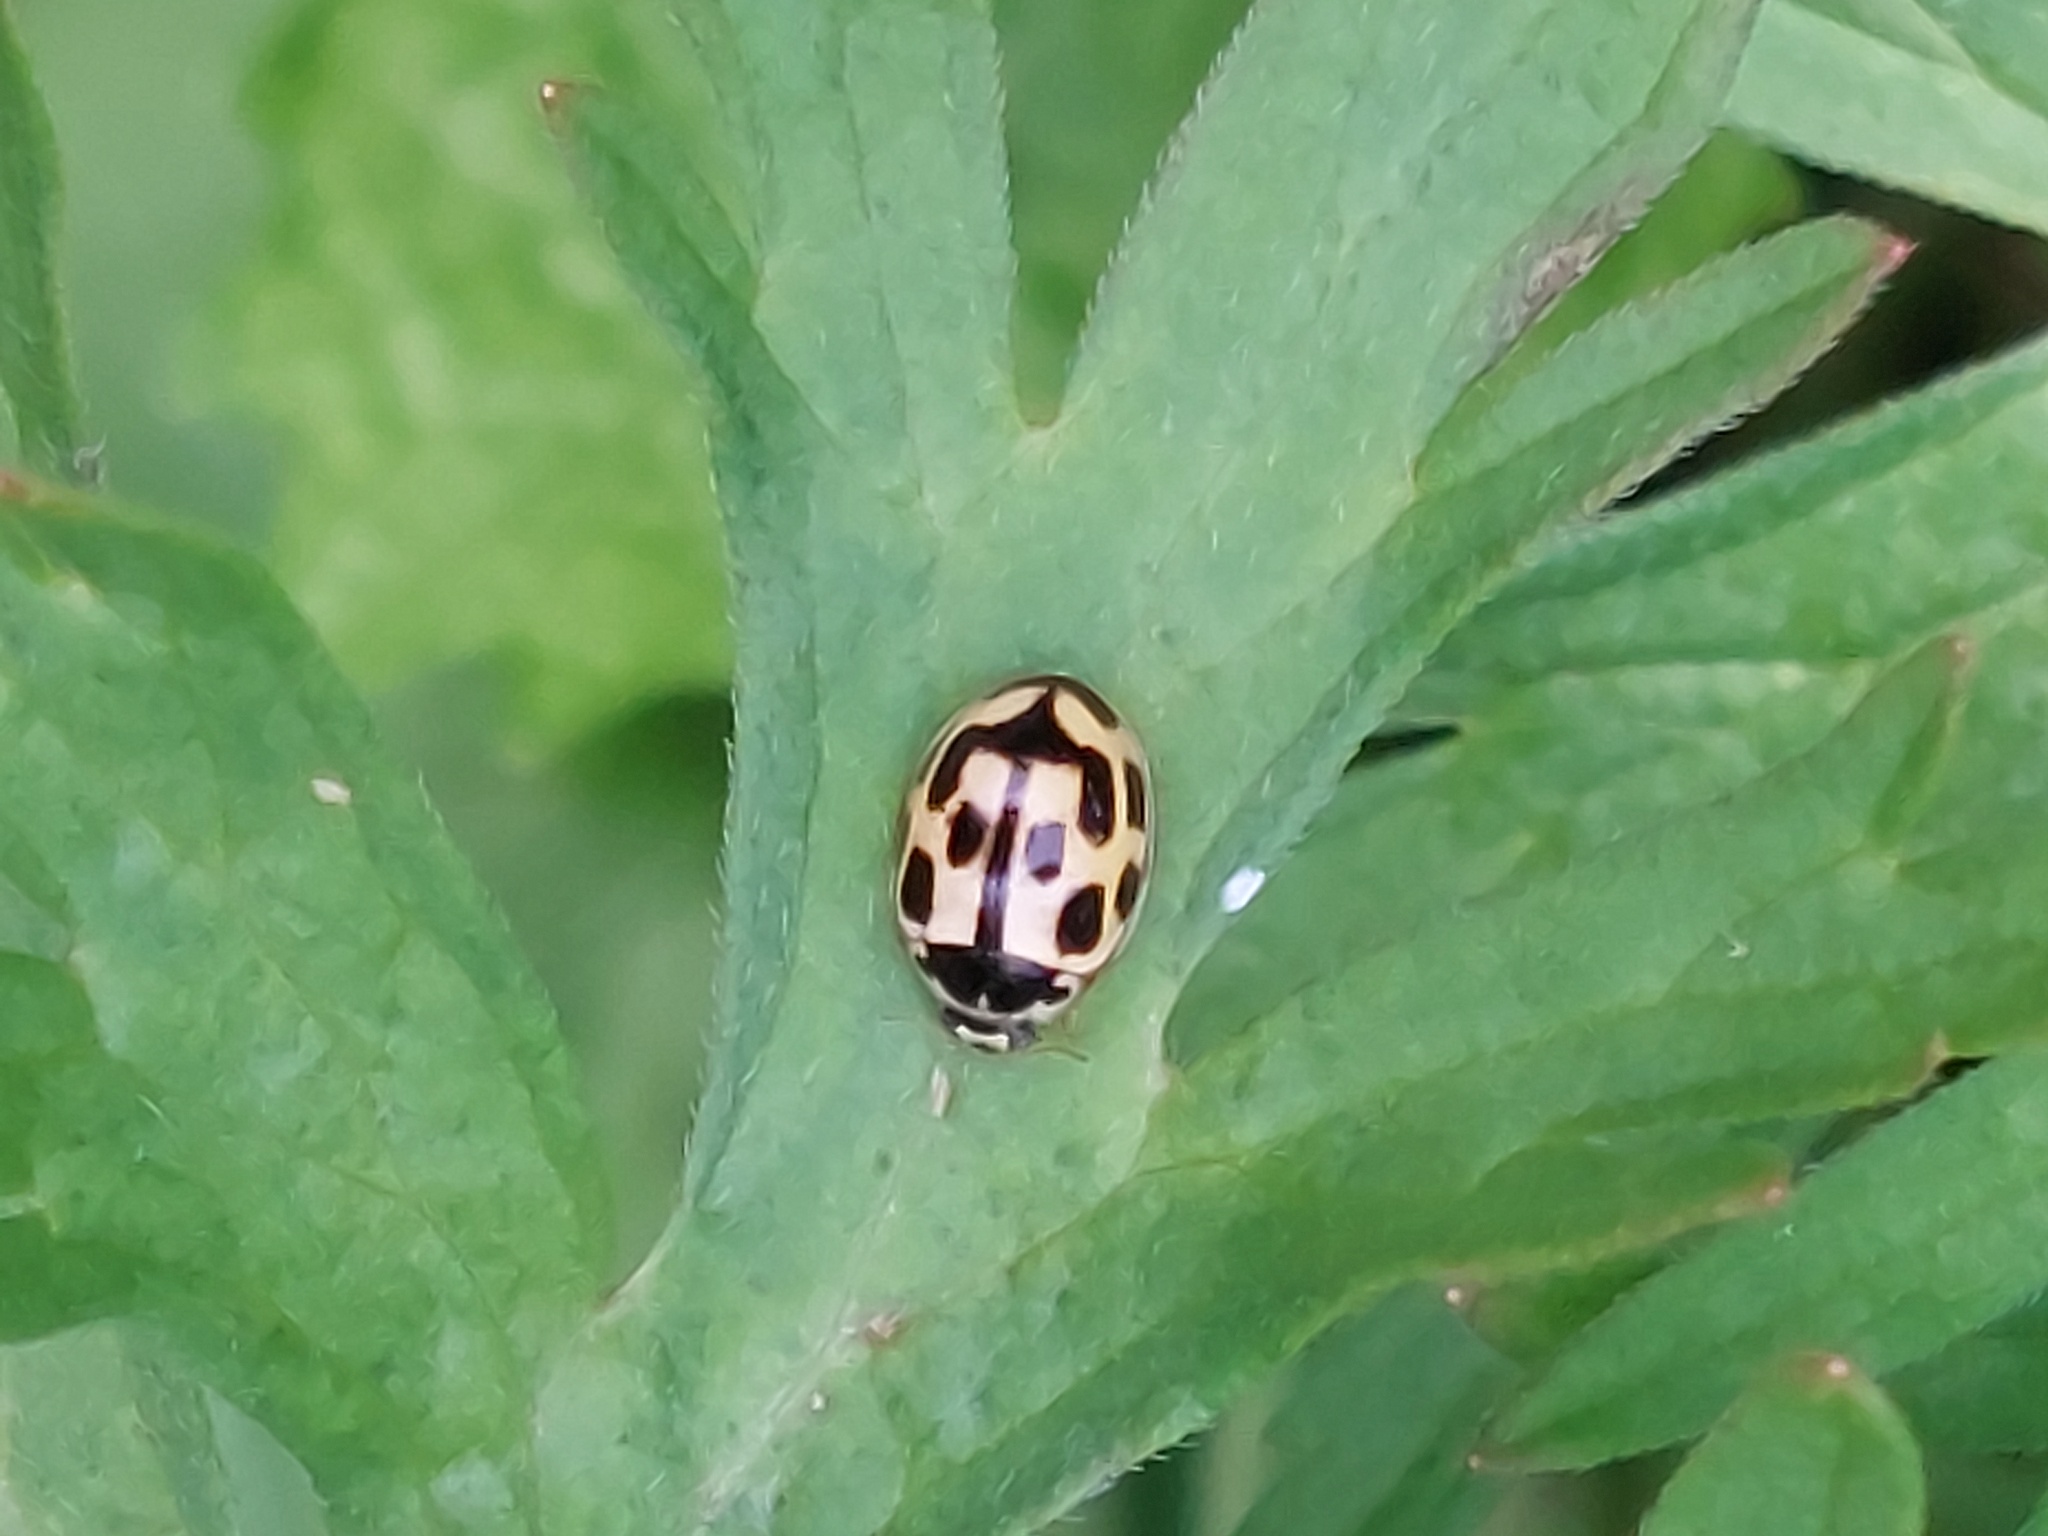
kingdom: Animalia
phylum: Arthropoda
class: Insecta
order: Coleoptera
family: Coccinellidae
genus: Propylaea
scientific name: Propylaea quatuordecimpunctata
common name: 14-spotted ladybird beetle
